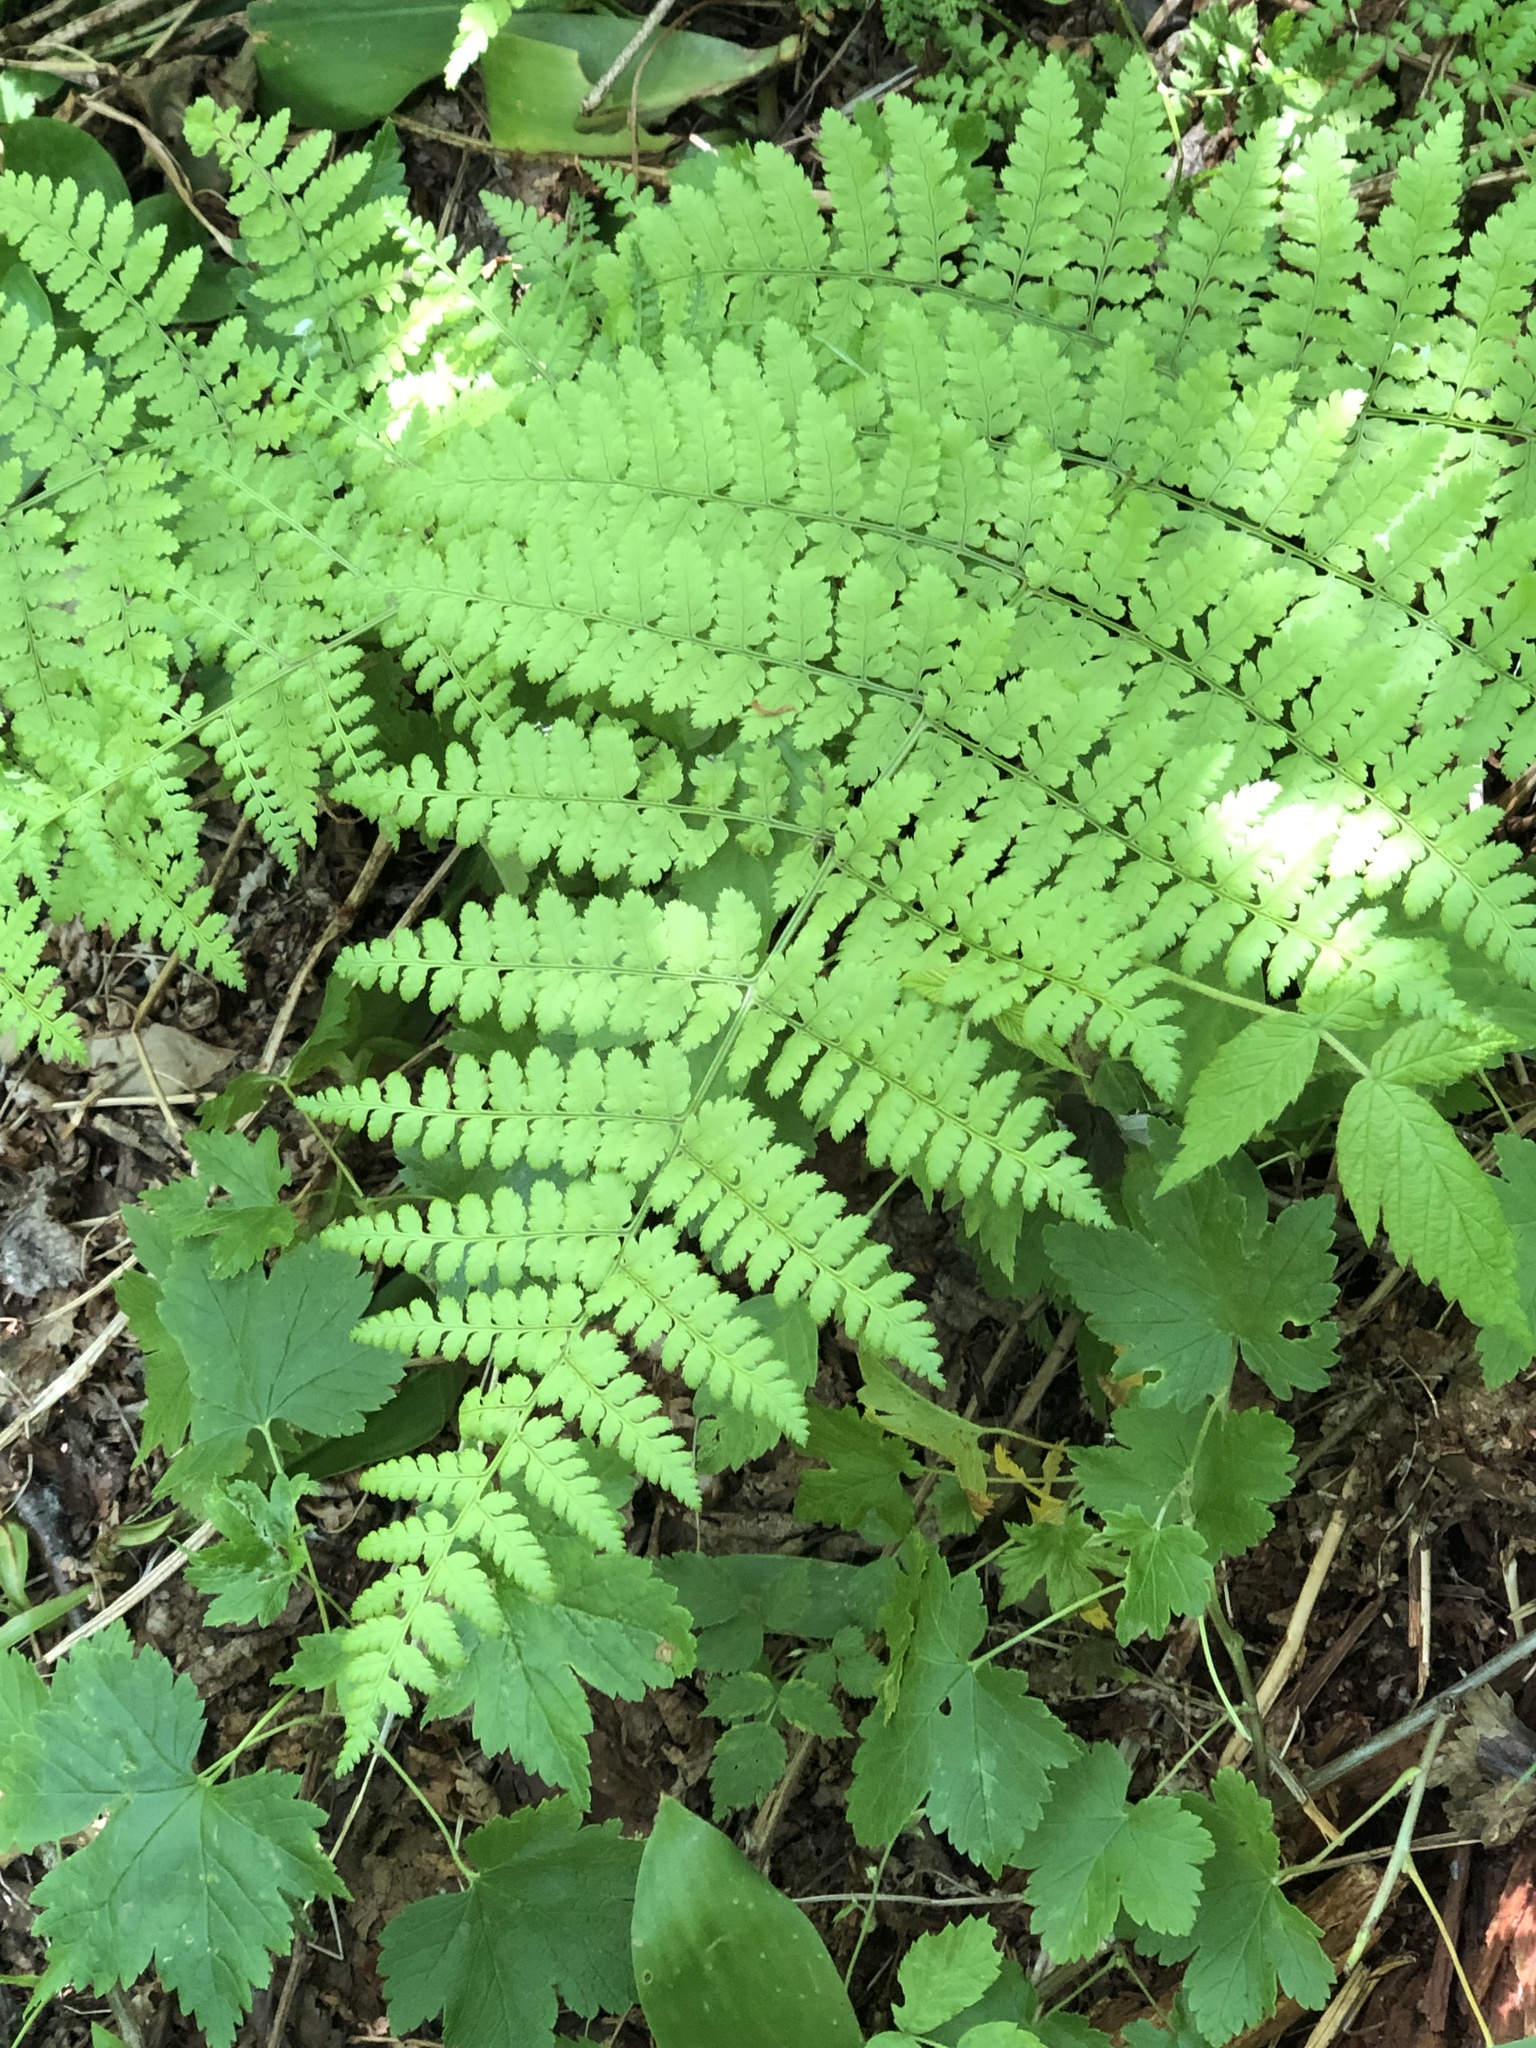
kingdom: Plantae
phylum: Tracheophyta
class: Polypodiopsida
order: Polypodiales
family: Dryopteridaceae
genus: Dryopteris
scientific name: Dryopteris intermedia
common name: Evergreen wood fern
